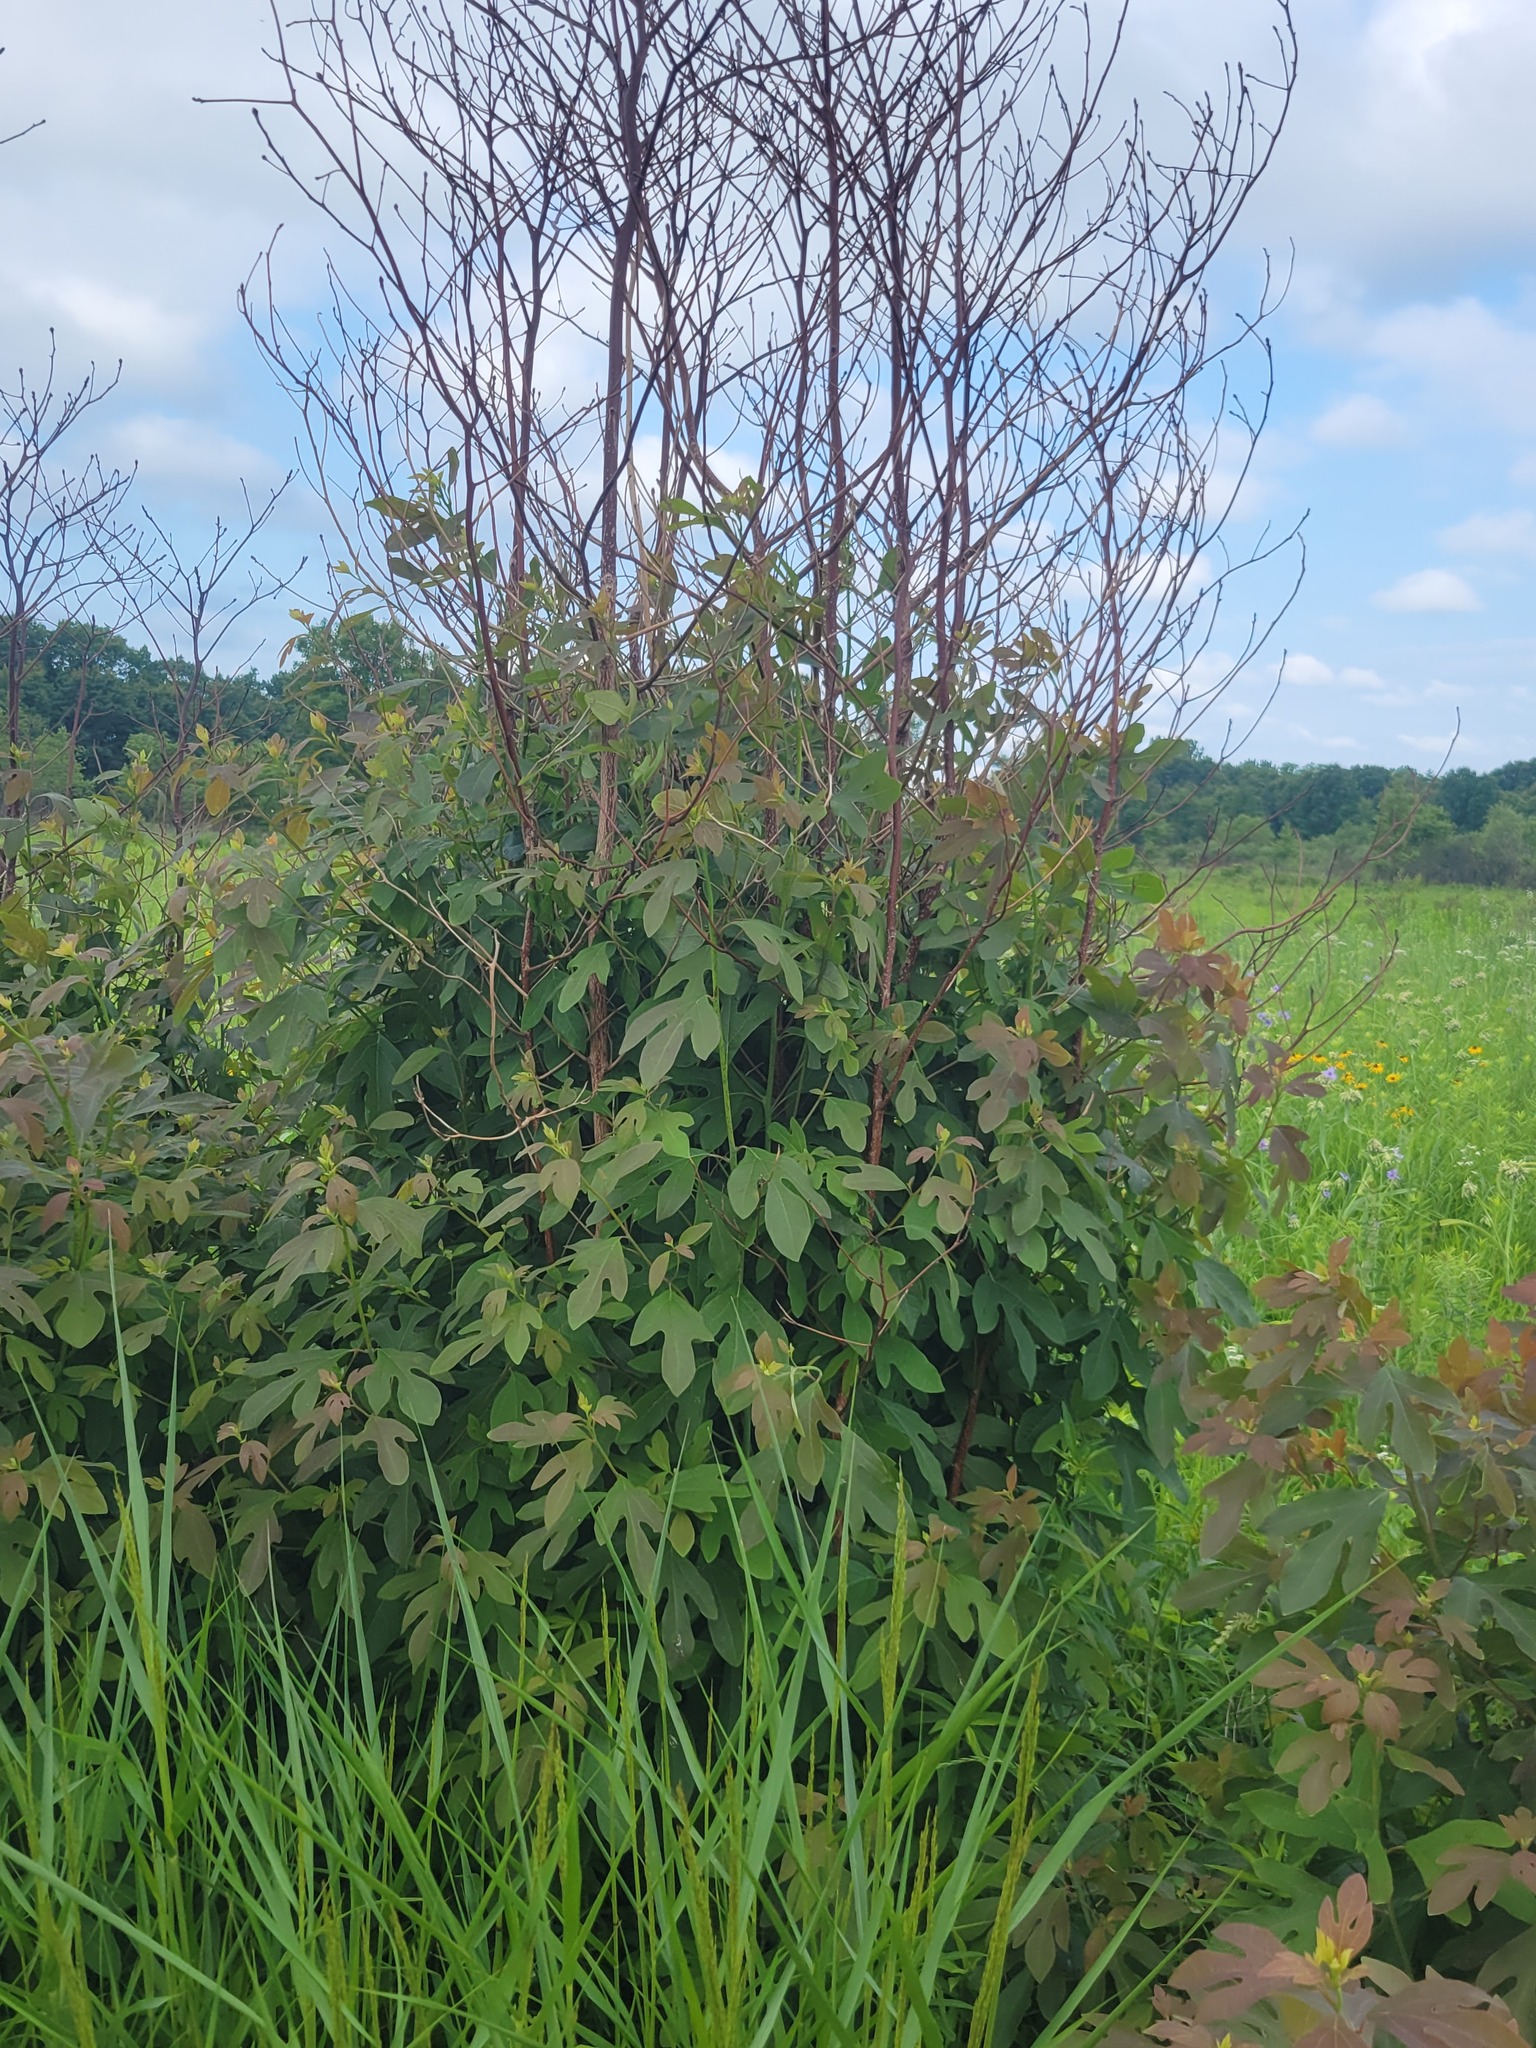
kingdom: Plantae
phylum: Tracheophyta
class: Magnoliopsida
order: Laurales
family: Lauraceae
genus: Sassafras
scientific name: Sassafras albidum
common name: Sassafras
